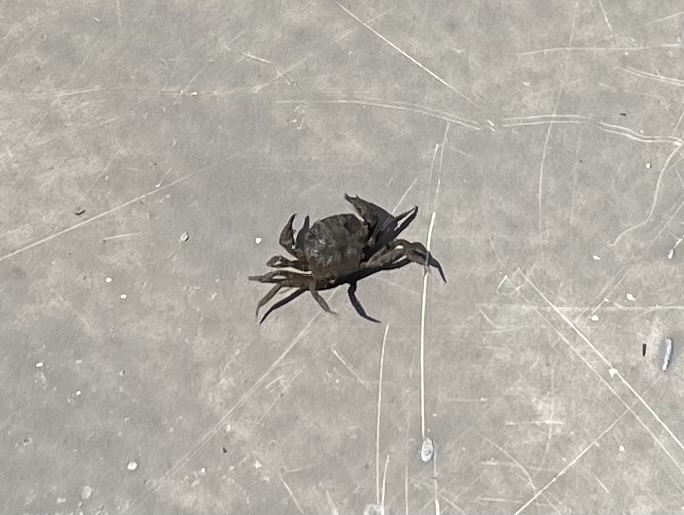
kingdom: Animalia
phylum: Arthropoda
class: Malacostraca
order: Decapoda
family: Sesarmidae
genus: Armases
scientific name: Armases cinereum
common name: Squareback marsh crab
